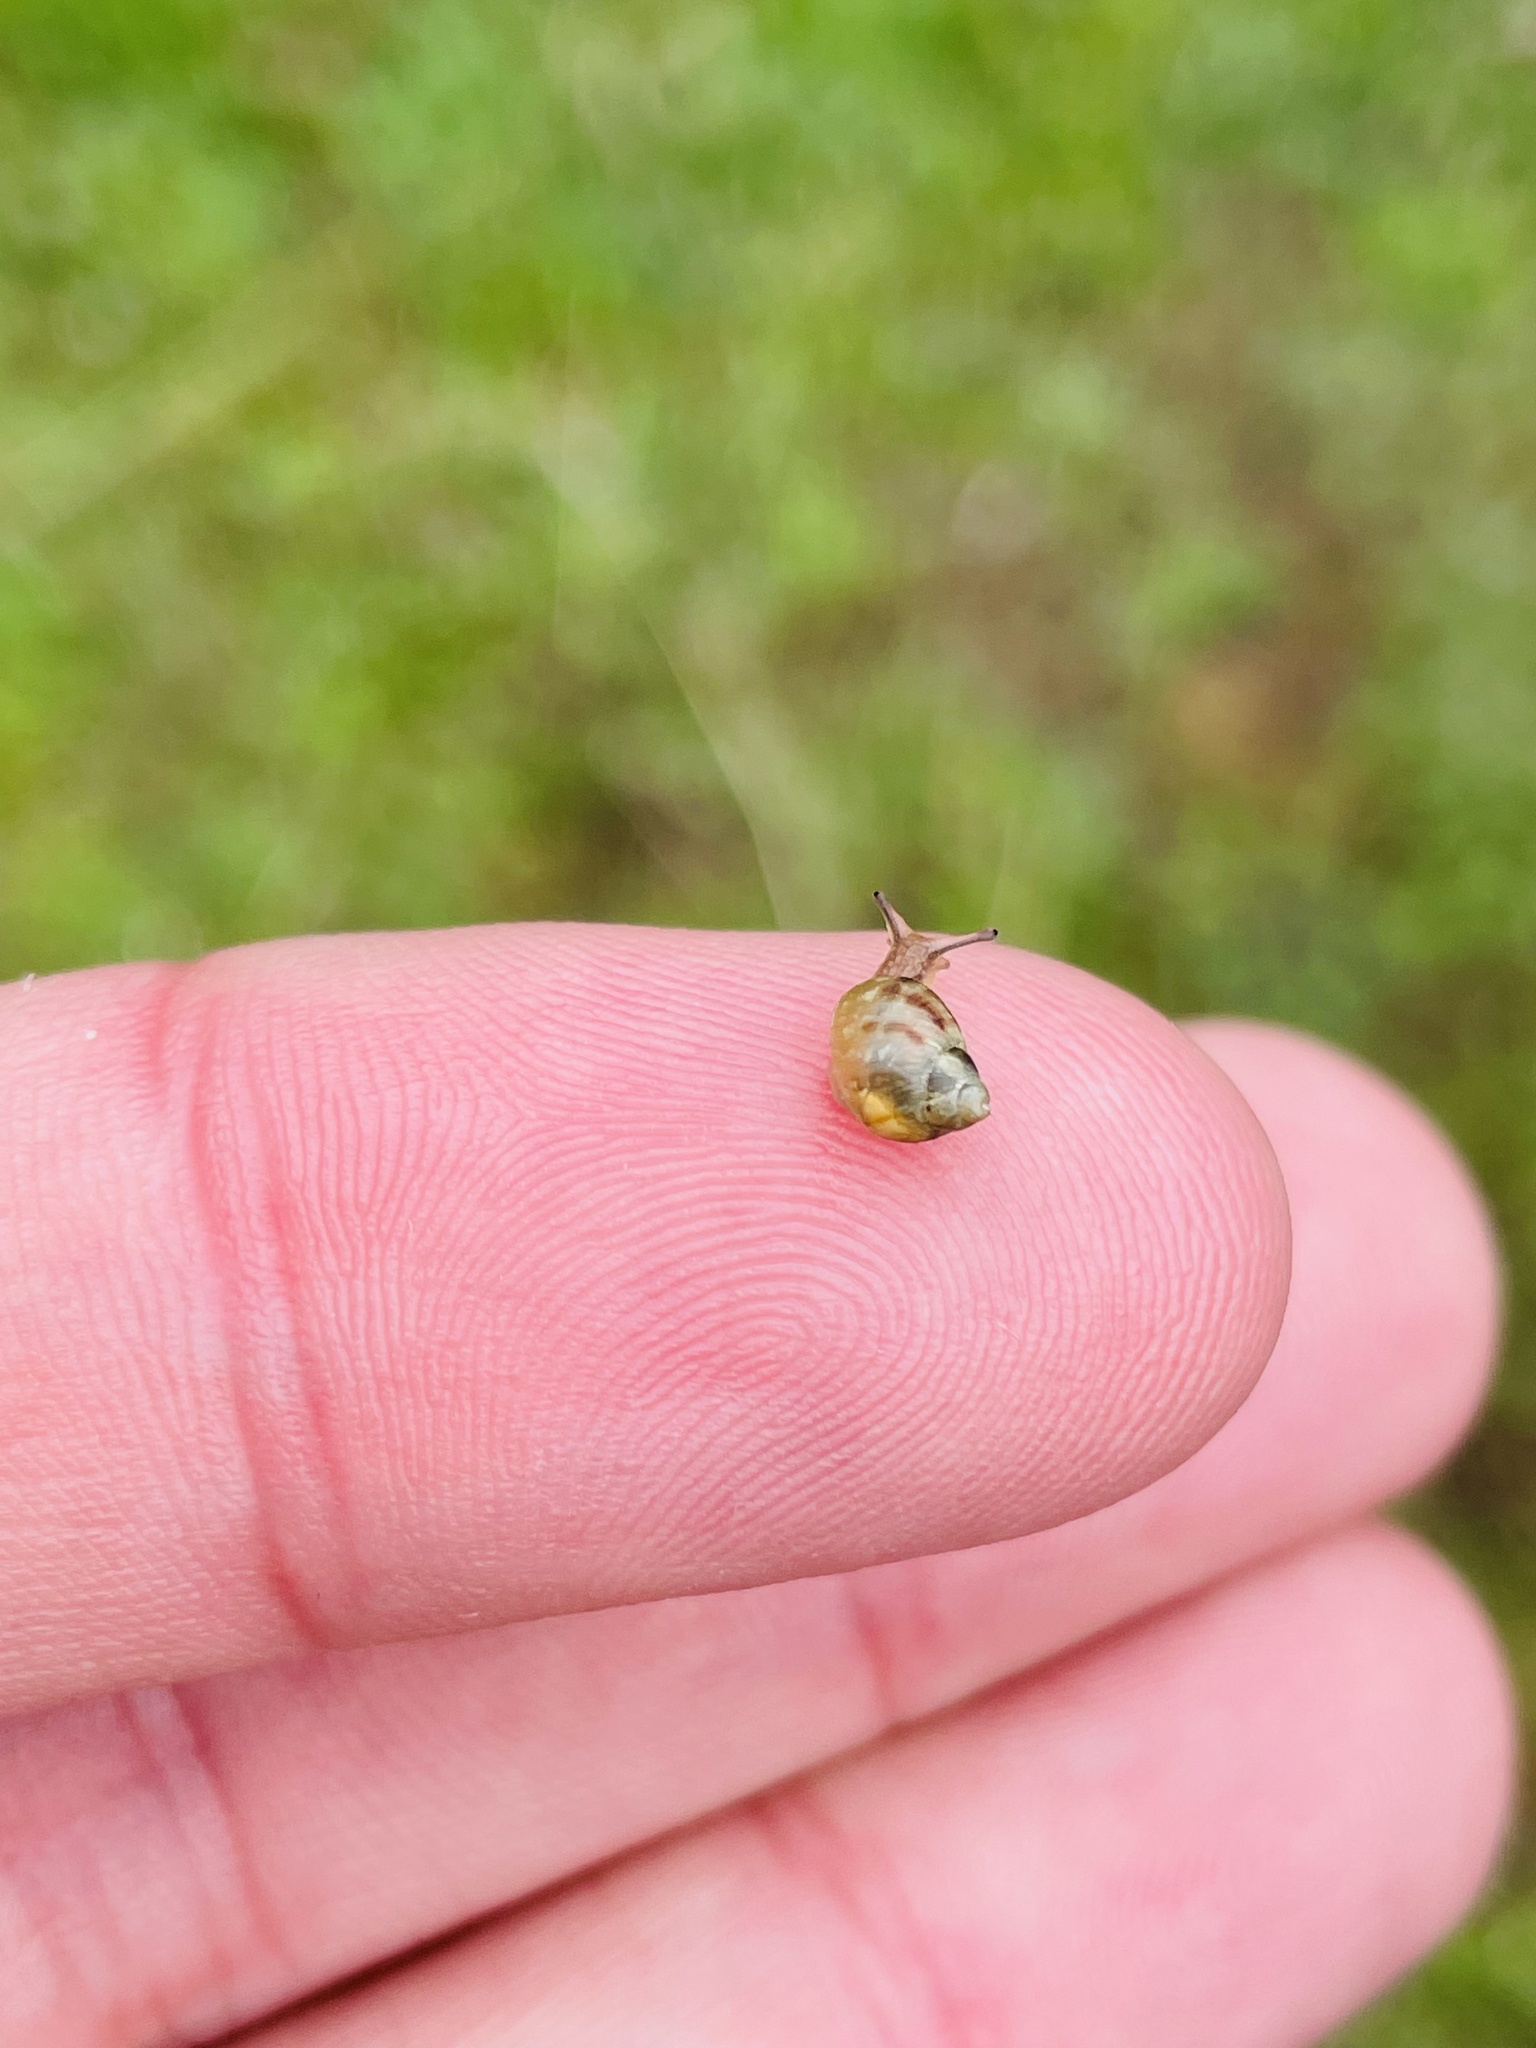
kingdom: Animalia
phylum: Mollusca
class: Gastropoda
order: Stylommatophora
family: Bothriembryontidae
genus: Plectostylus
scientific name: Plectostylus vagabondiae
